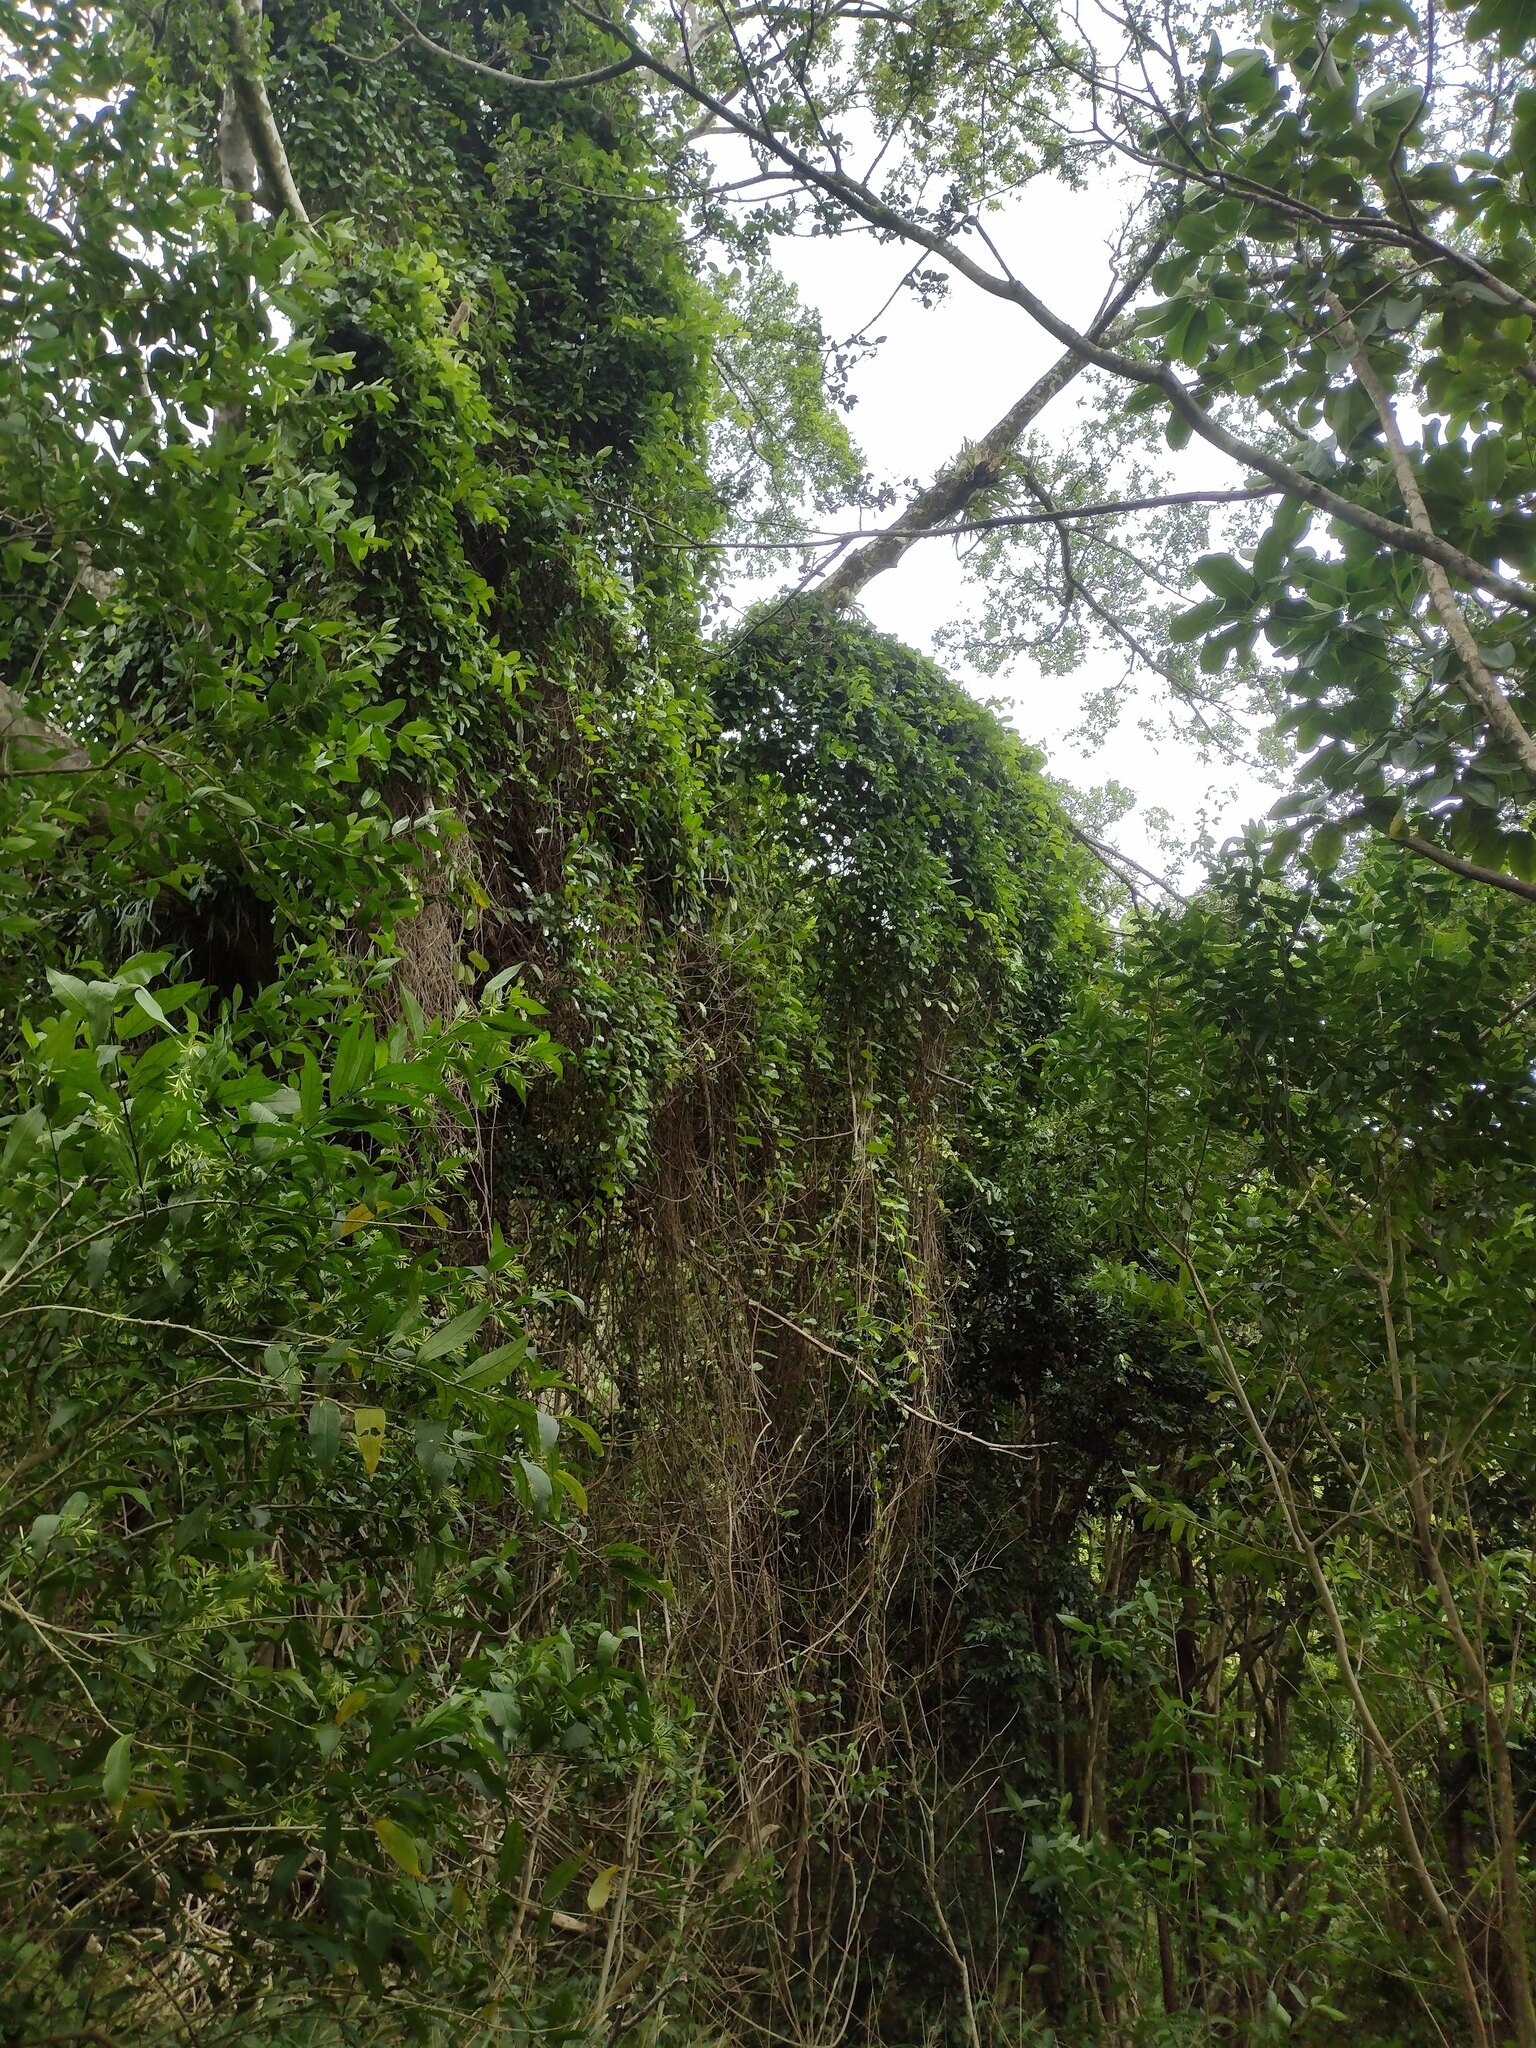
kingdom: Plantae
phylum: Tracheophyta
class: Magnoliopsida
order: Malpighiales
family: Passifloraceae
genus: Passiflora
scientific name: Passiflora laurifolia
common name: Bell apple
